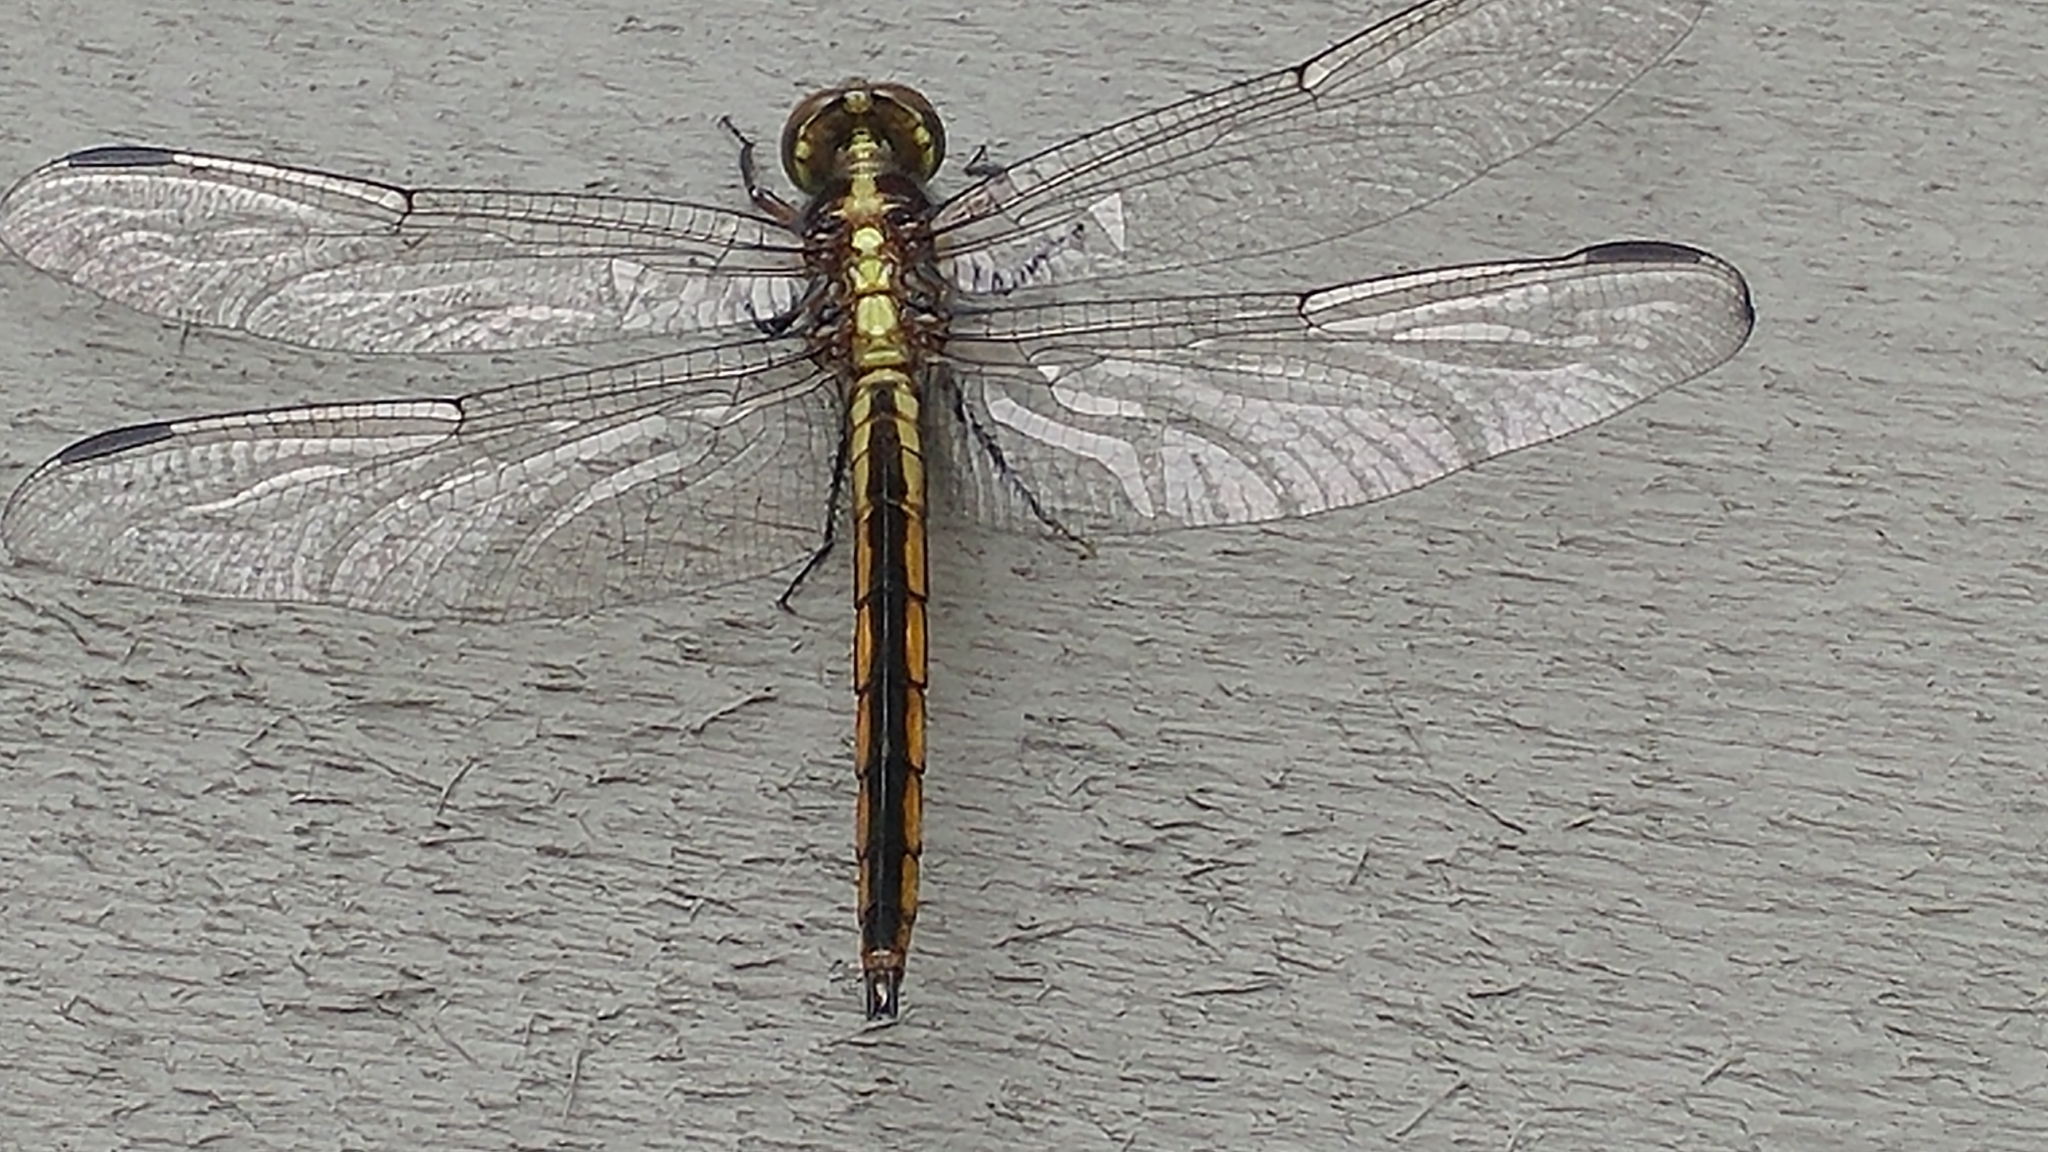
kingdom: Animalia
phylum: Arthropoda
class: Insecta
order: Odonata
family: Libellulidae
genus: Libellula
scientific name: Libellula incesta
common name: Slaty skimmer
